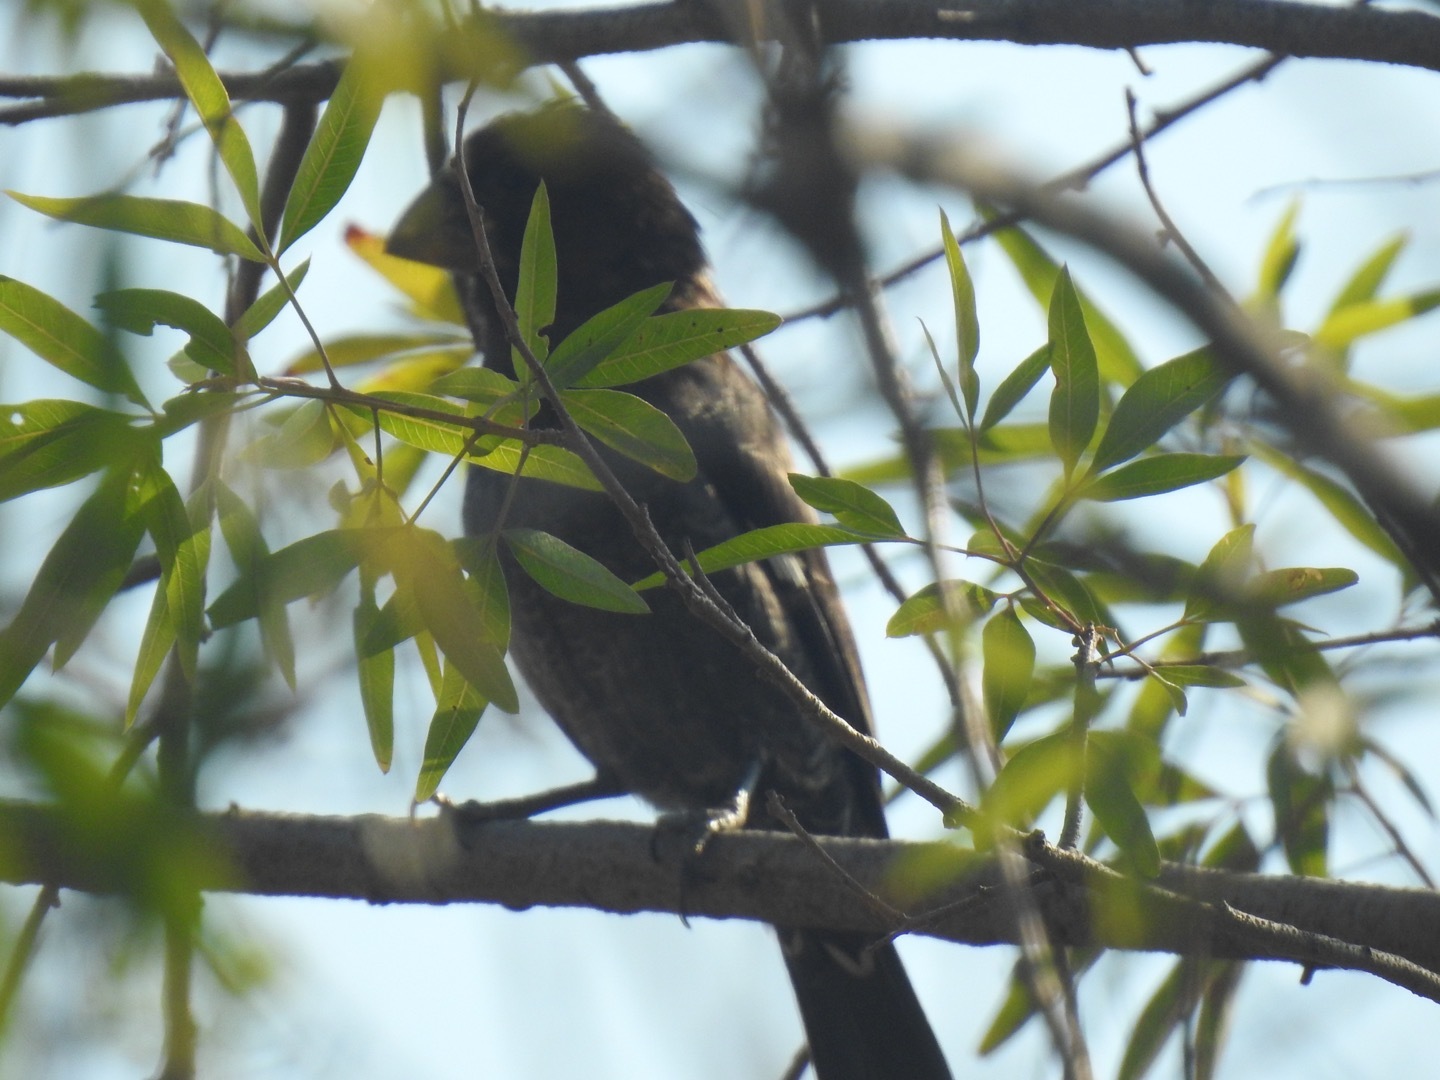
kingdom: Animalia
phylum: Chordata
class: Aves
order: Passeriformes
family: Ploceidae
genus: Amblyospiza
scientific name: Amblyospiza albifrons
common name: Thick-billed weaver
